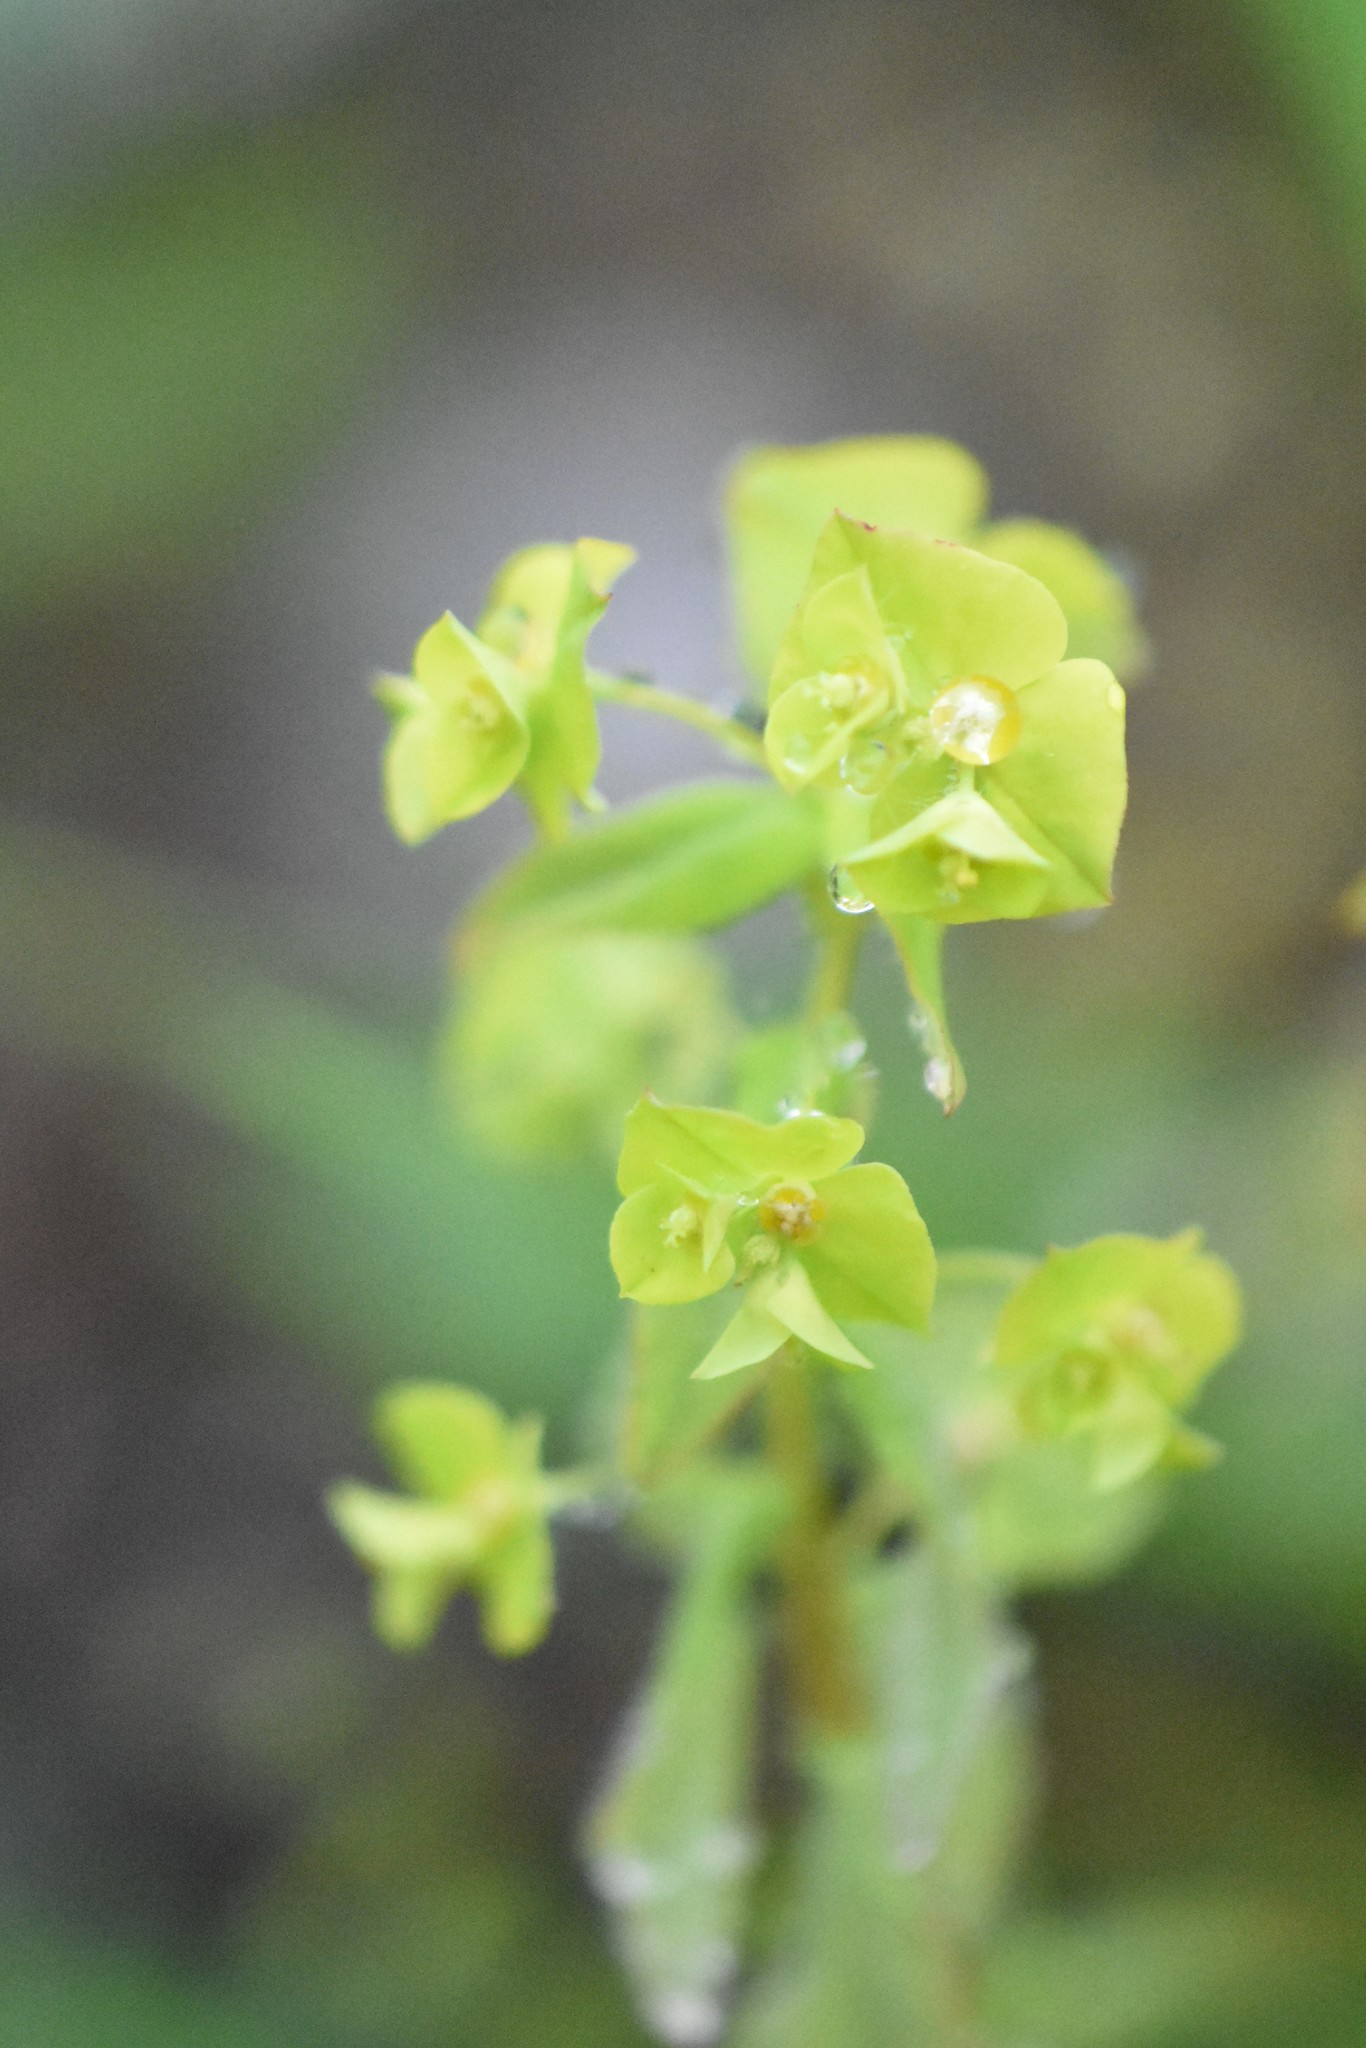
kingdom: Plantae
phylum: Tracheophyta
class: Magnoliopsida
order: Malpighiales
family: Euphorbiaceae
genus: Euphorbia
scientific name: Euphorbia stricta
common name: Upright spurge
